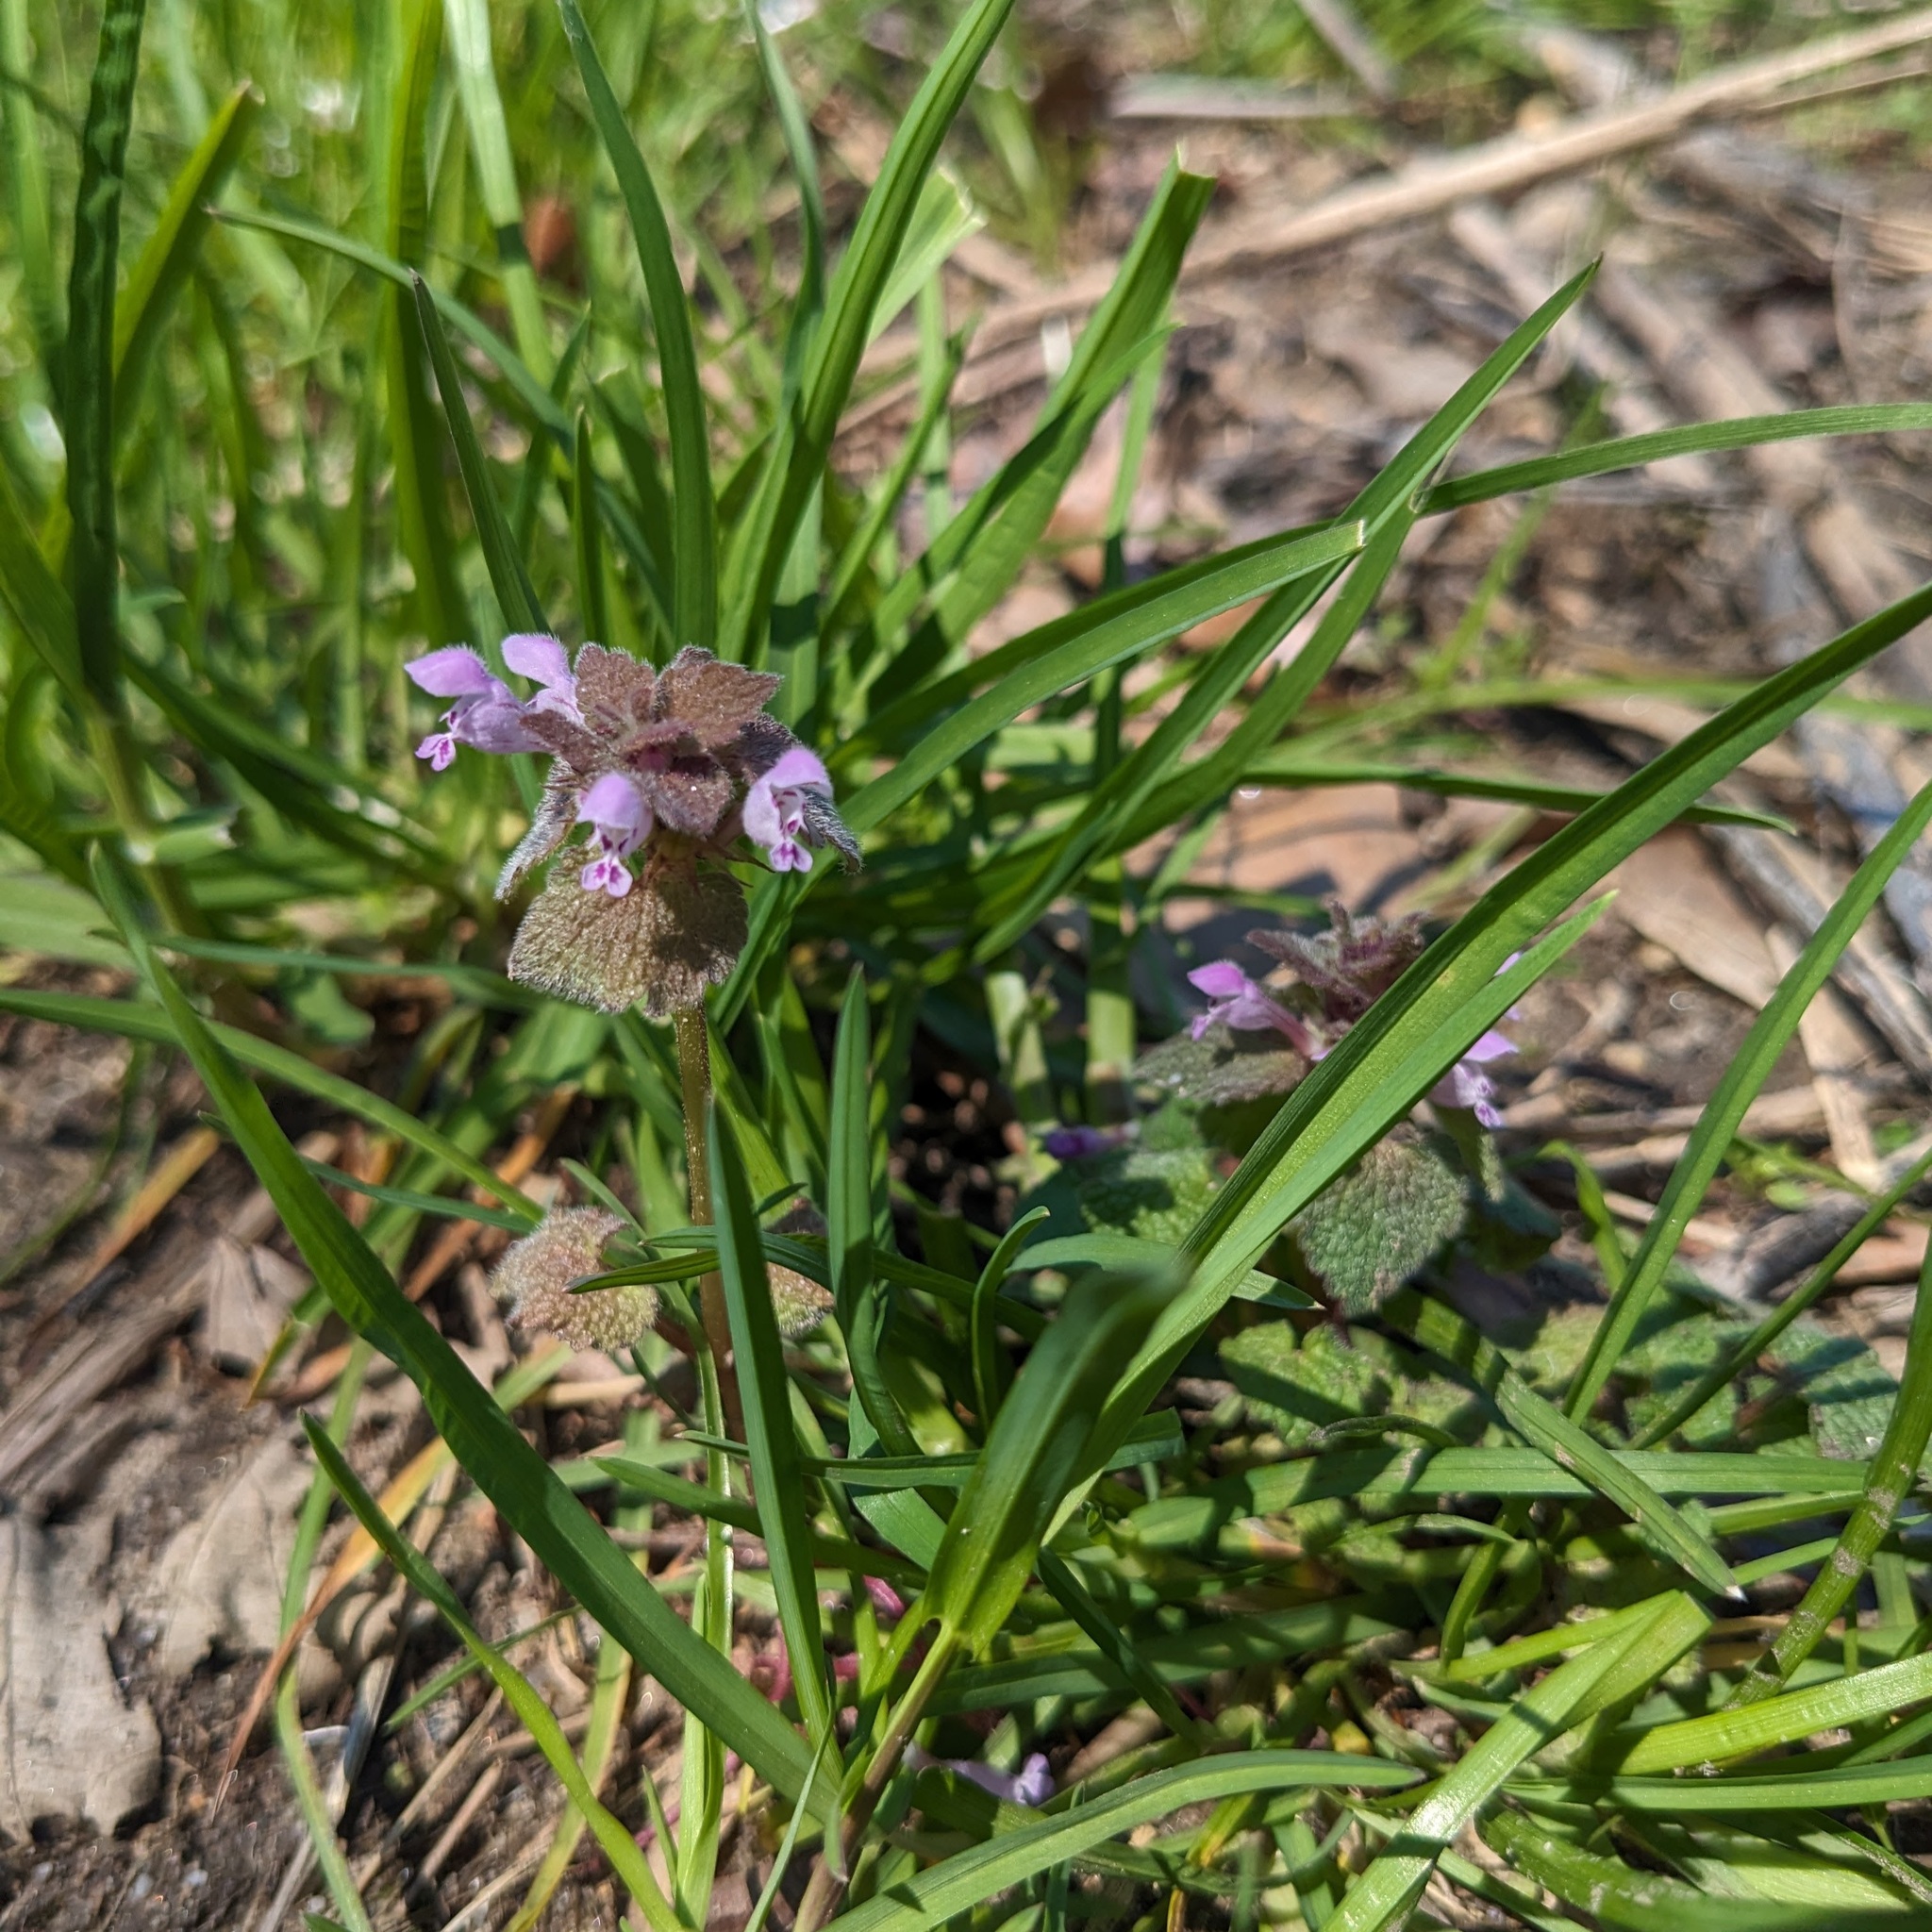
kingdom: Plantae
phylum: Tracheophyta
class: Magnoliopsida
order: Lamiales
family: Lamiaceae
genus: Lamium
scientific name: Lamium purpureum
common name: Red dead-nettle
